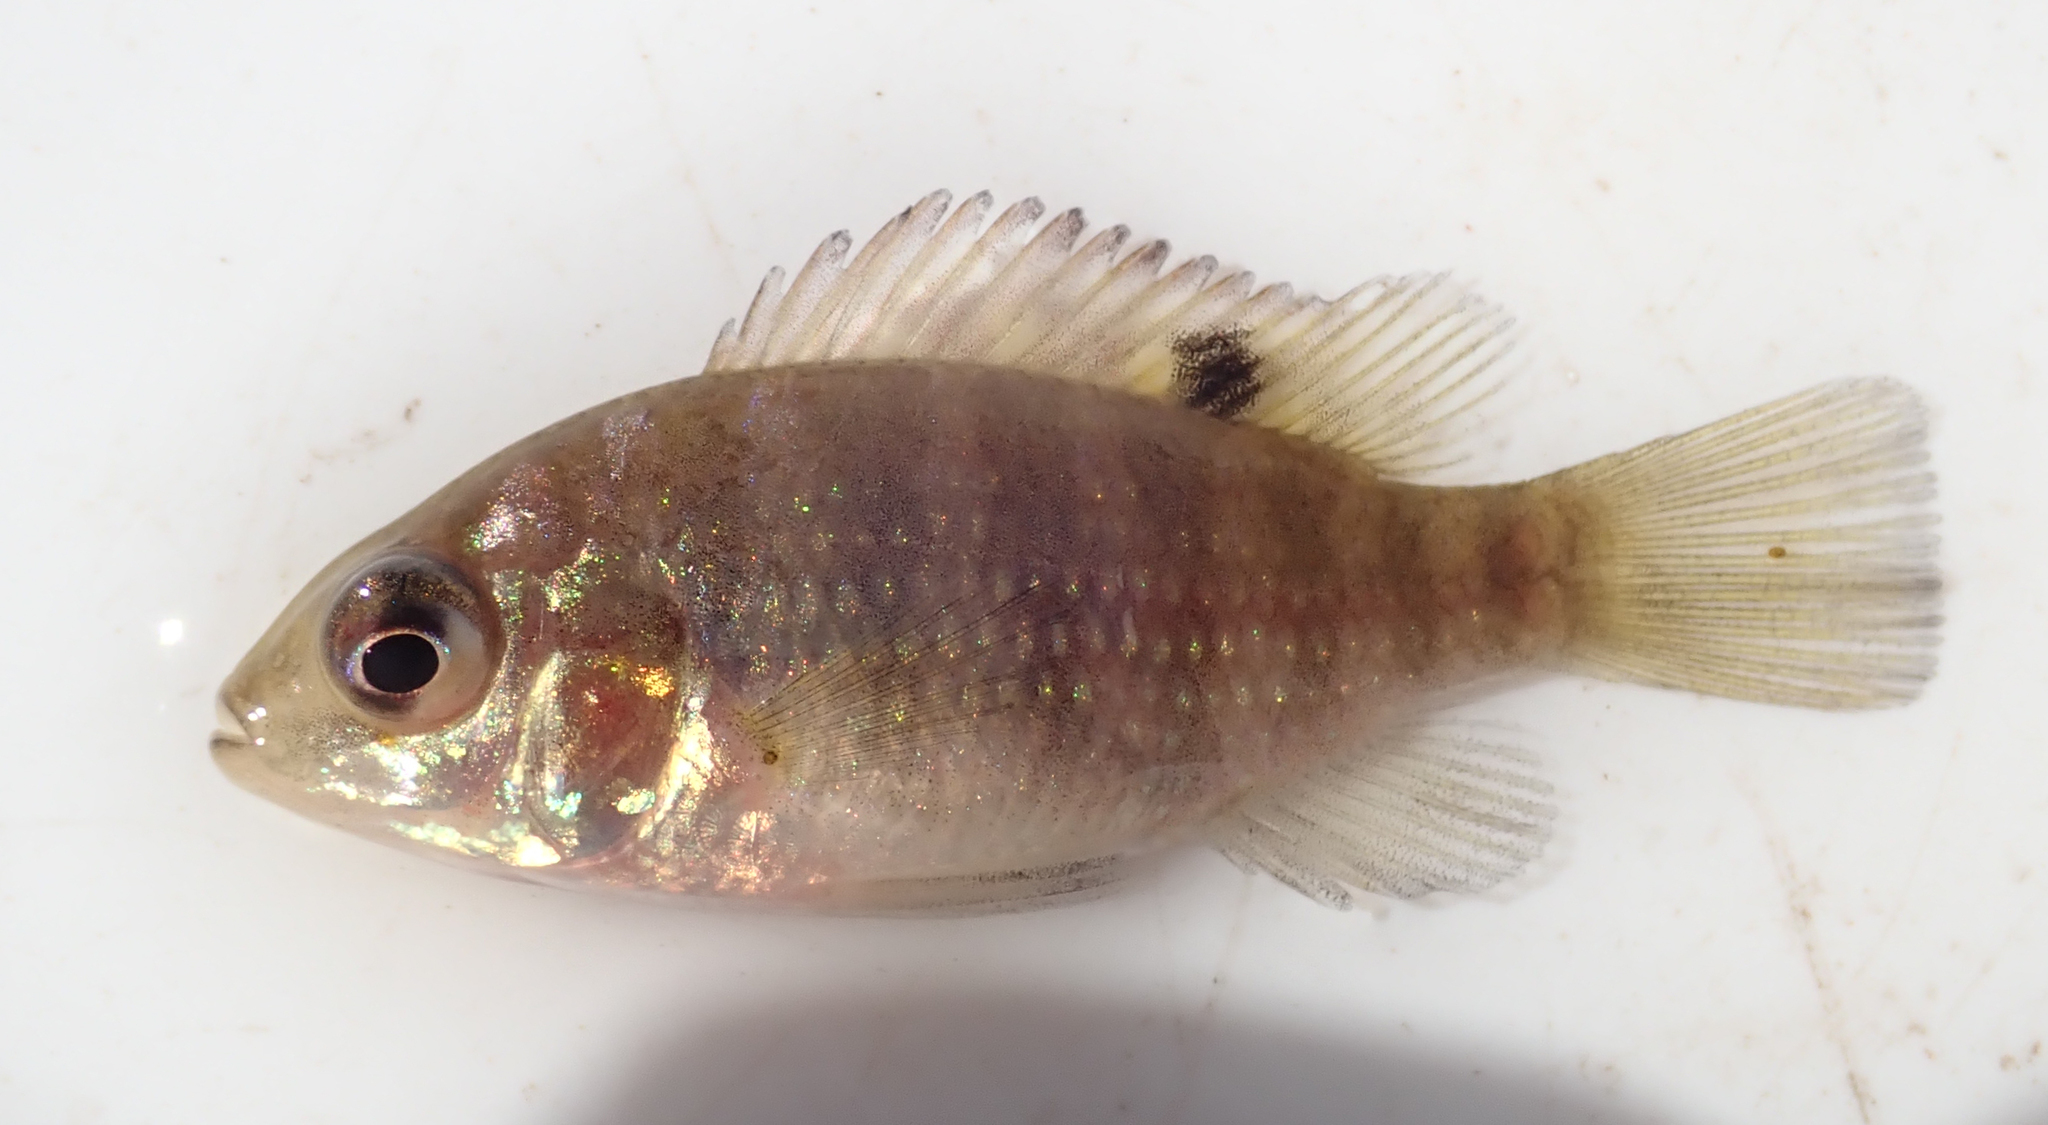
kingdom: Animalia
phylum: Chordata
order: Perciformes
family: Cichlidae
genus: Tilapia
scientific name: Tilapia sparrmanii
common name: Banded tilapia
